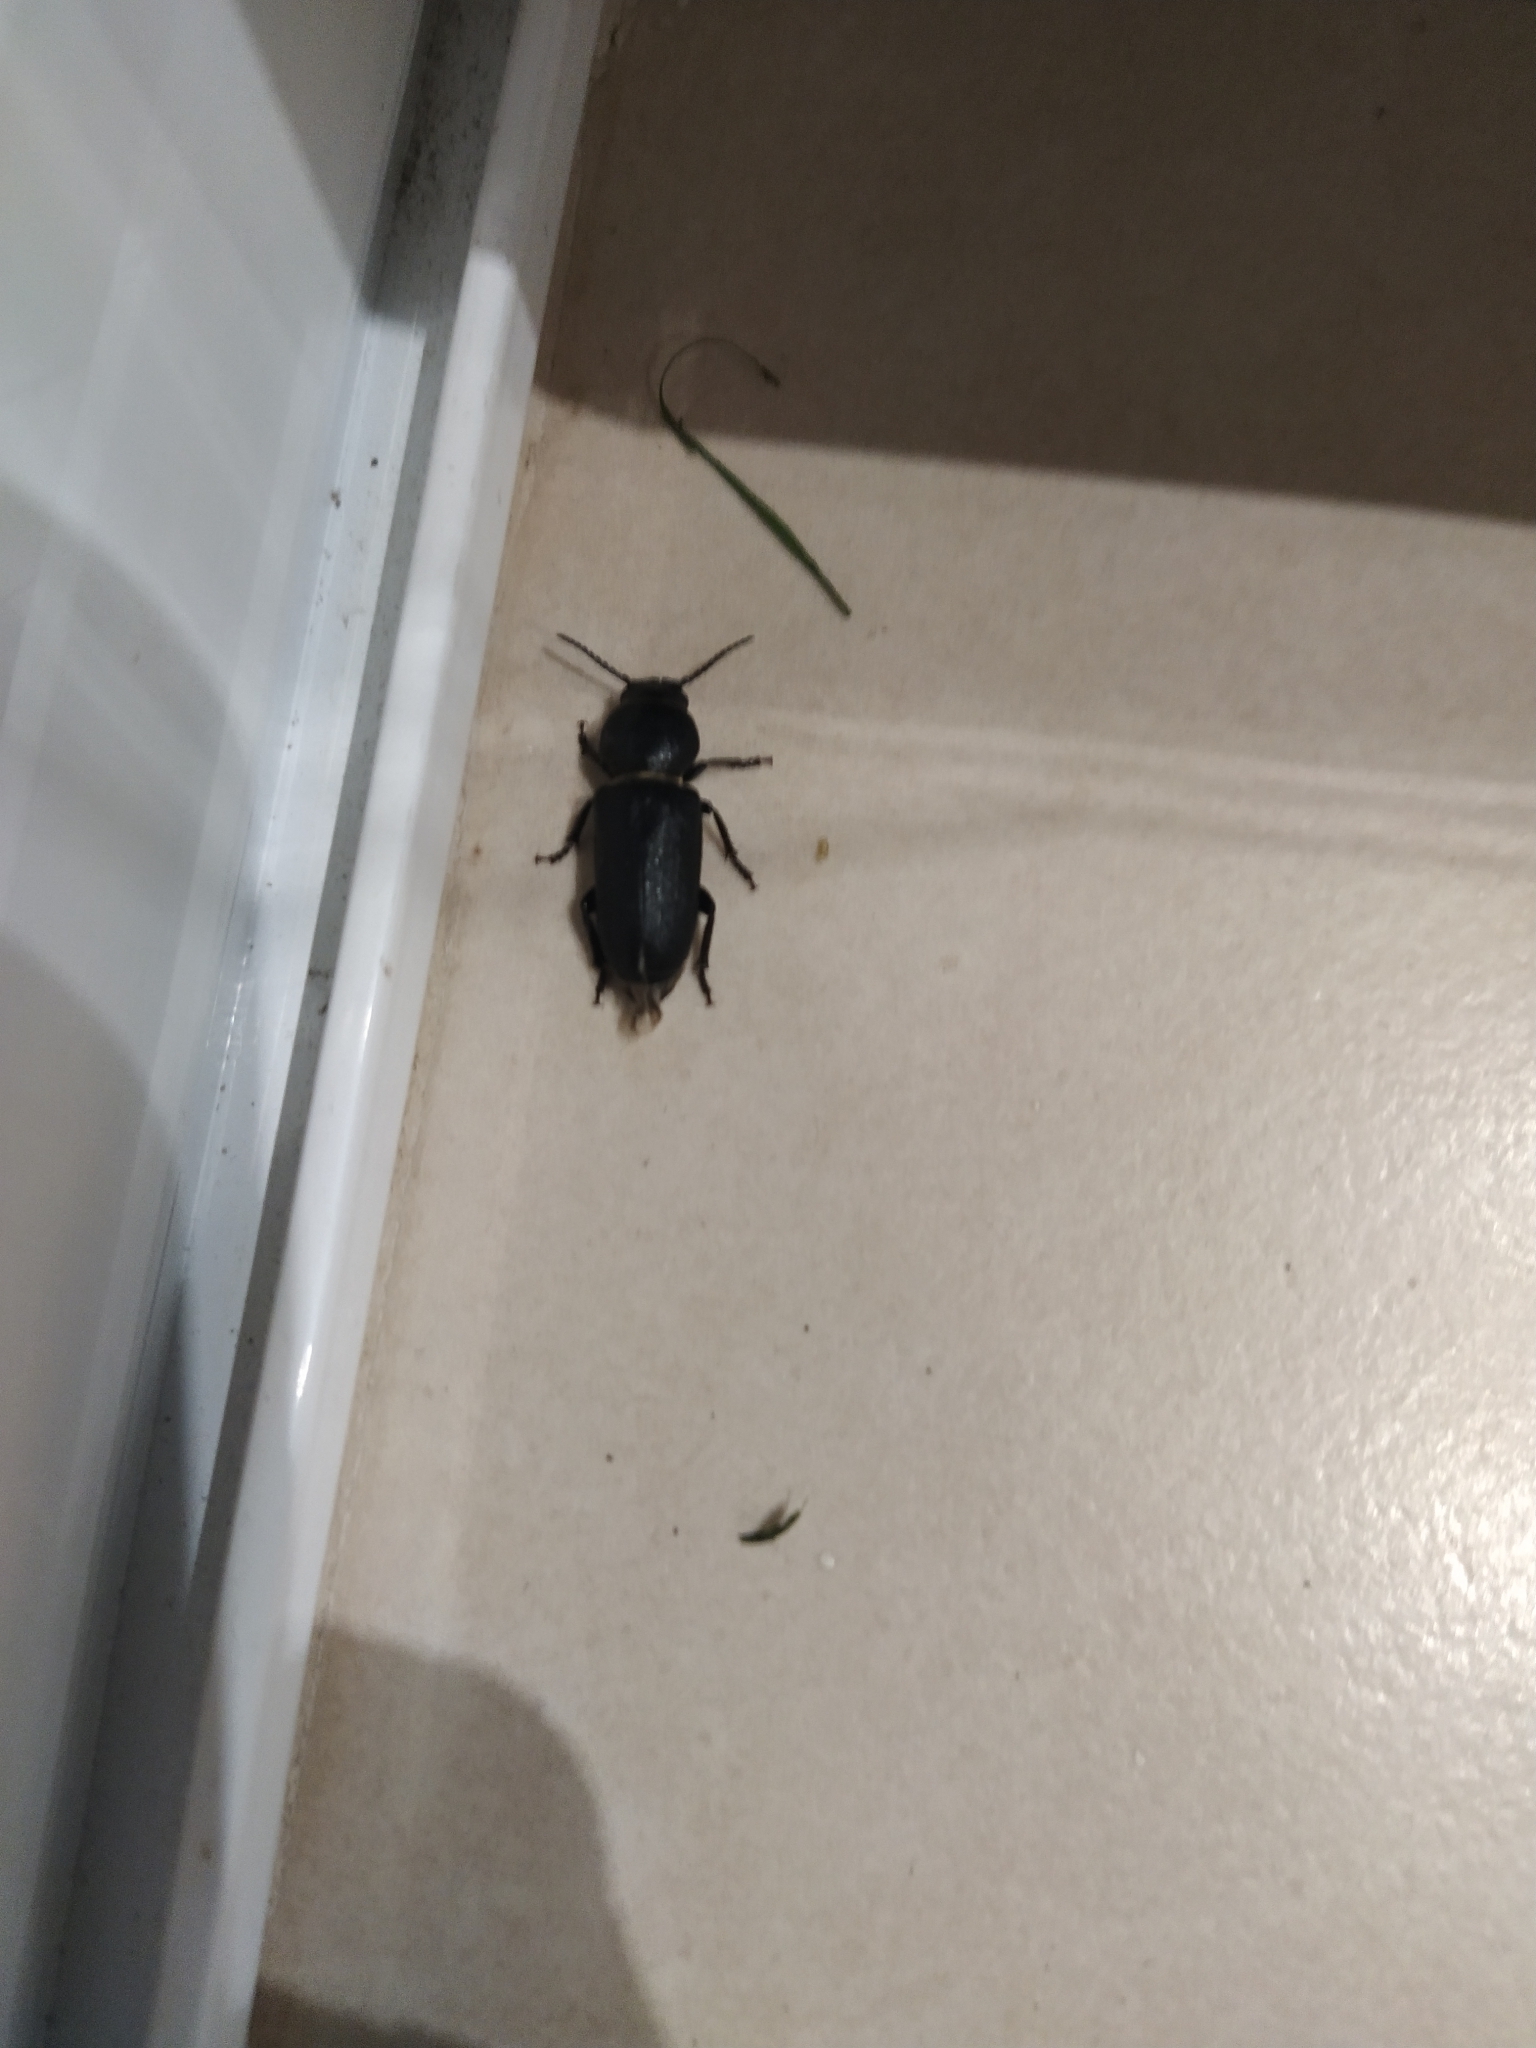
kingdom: Animalia
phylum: Arthropoda
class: Insecta
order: Coleoptera
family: Cerambycidae
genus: Spondylis
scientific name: Spondylis buprestoides
